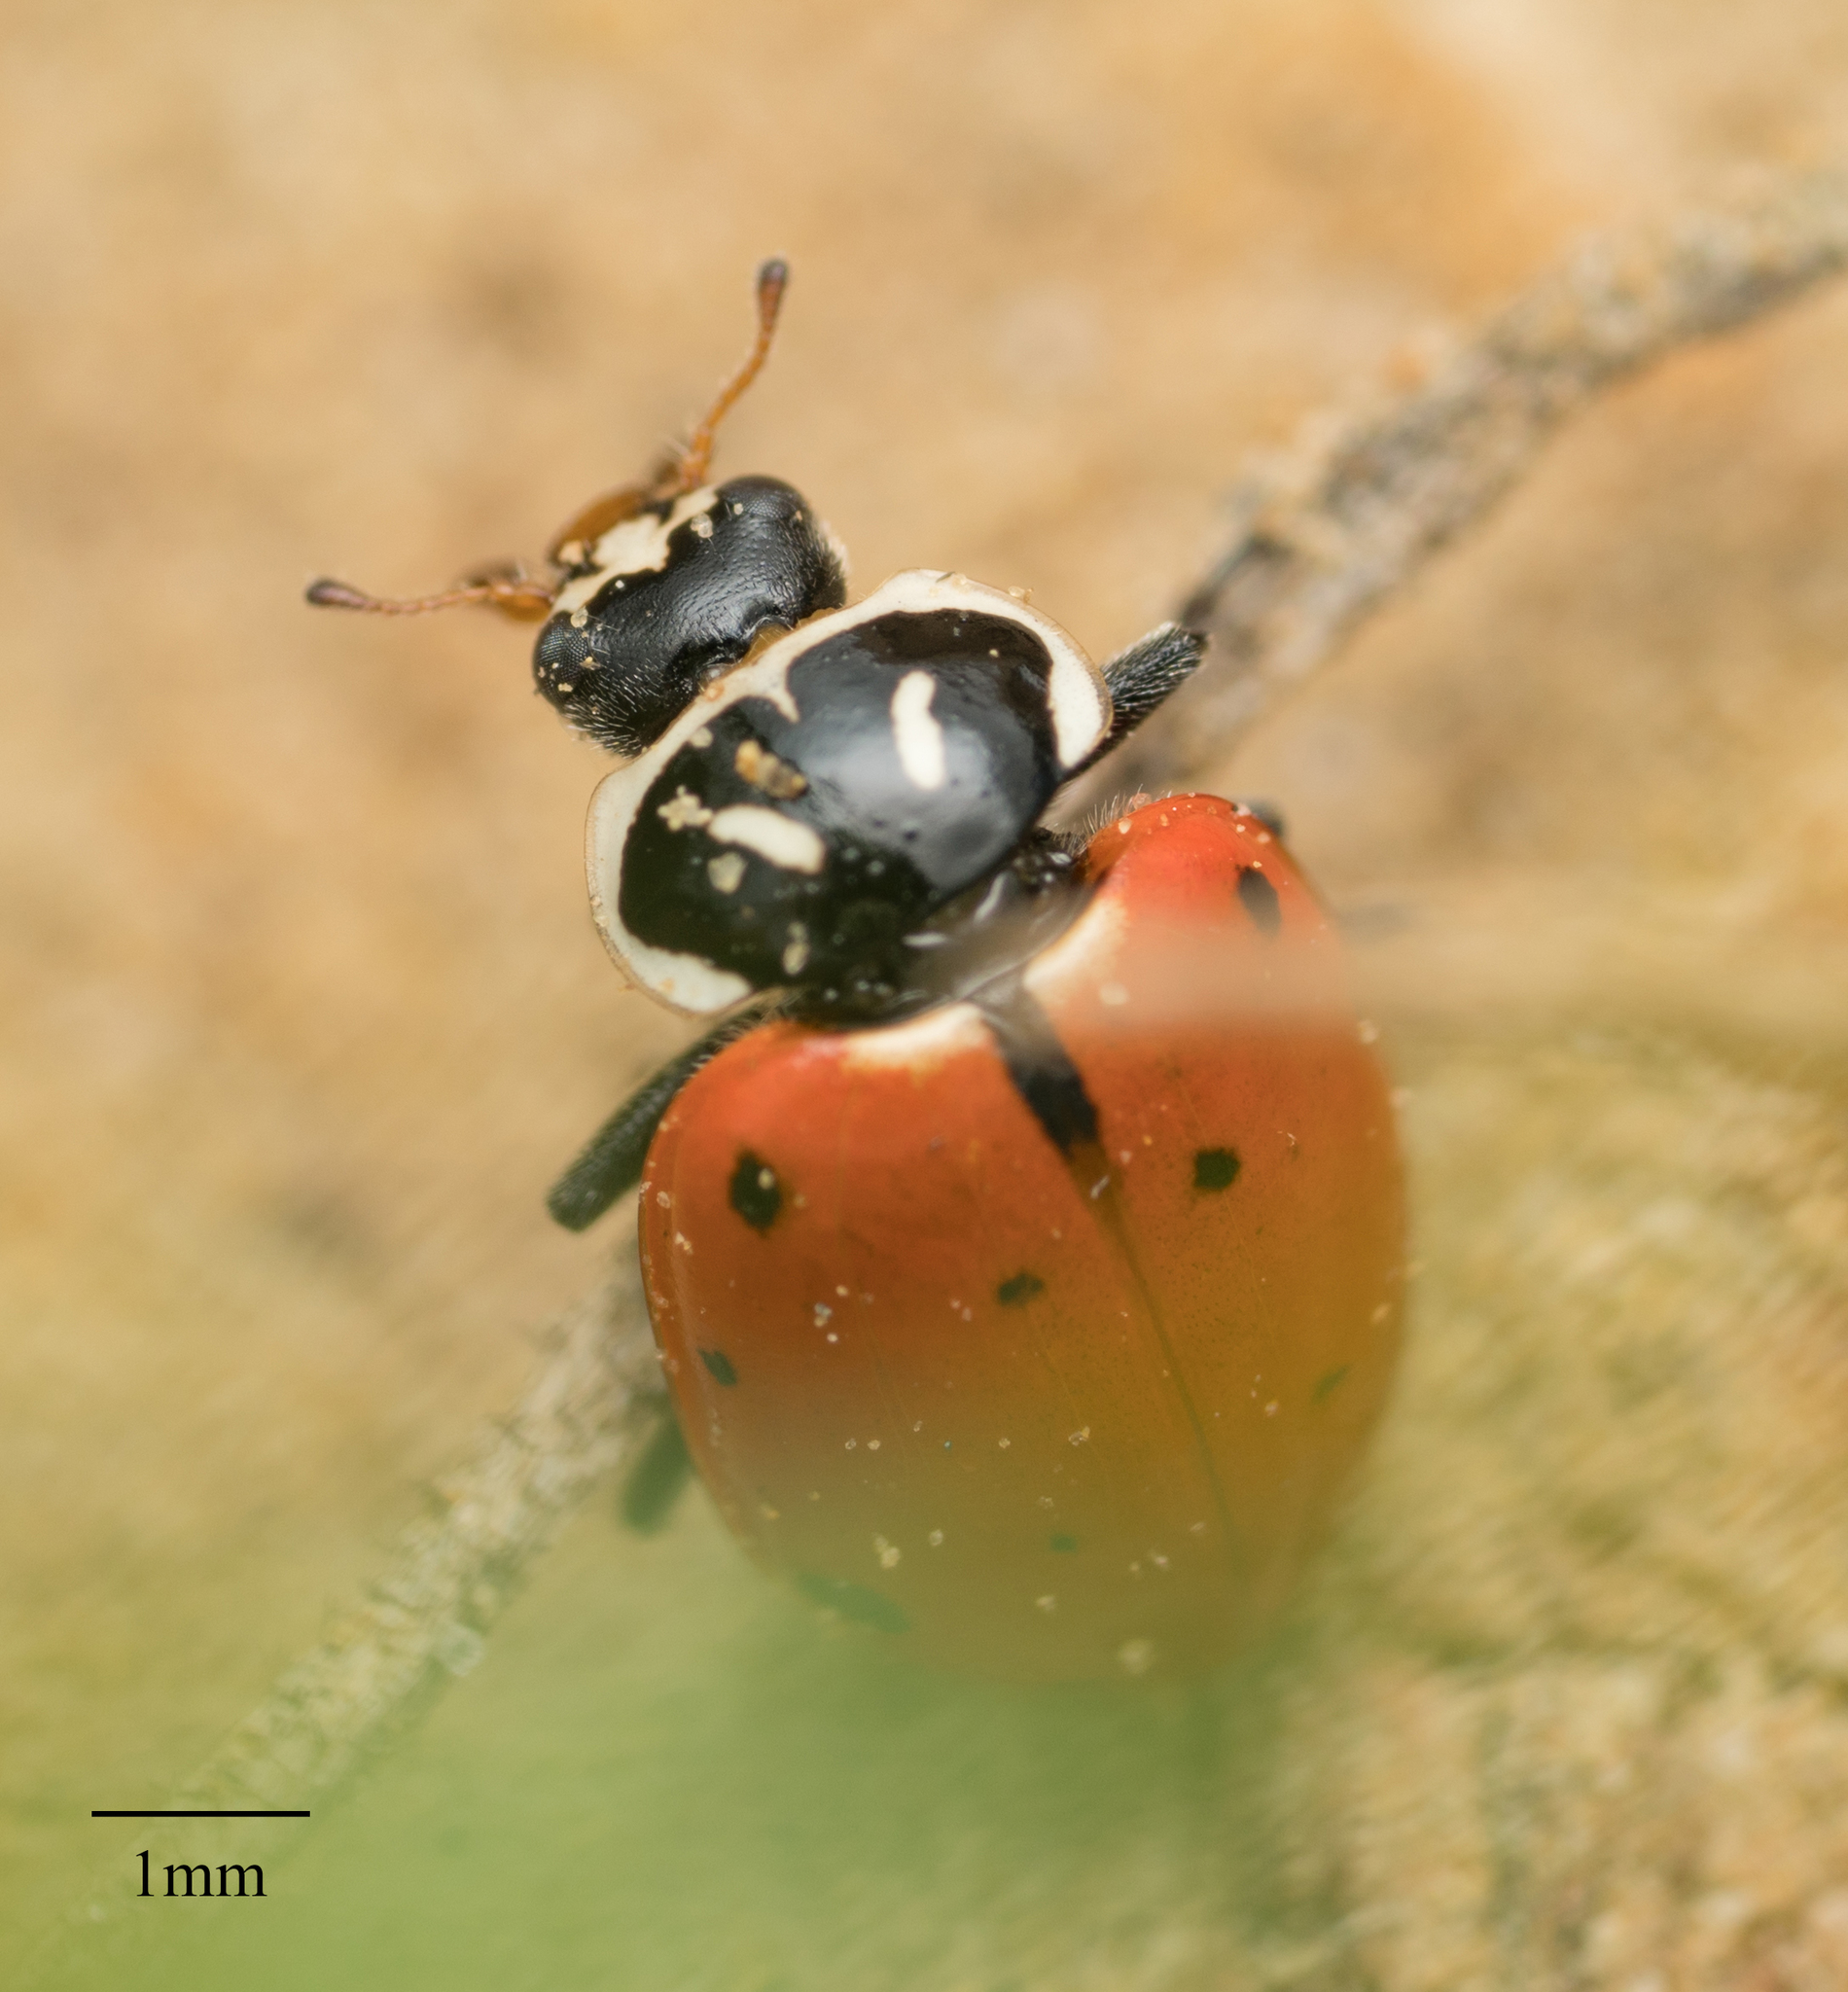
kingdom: Animalia
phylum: Arthropoda
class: Insecta
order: Coleoptera
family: Coccinellidae
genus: Hippodamia
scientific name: Hippodamia convergens
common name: Convergent lady beetle
